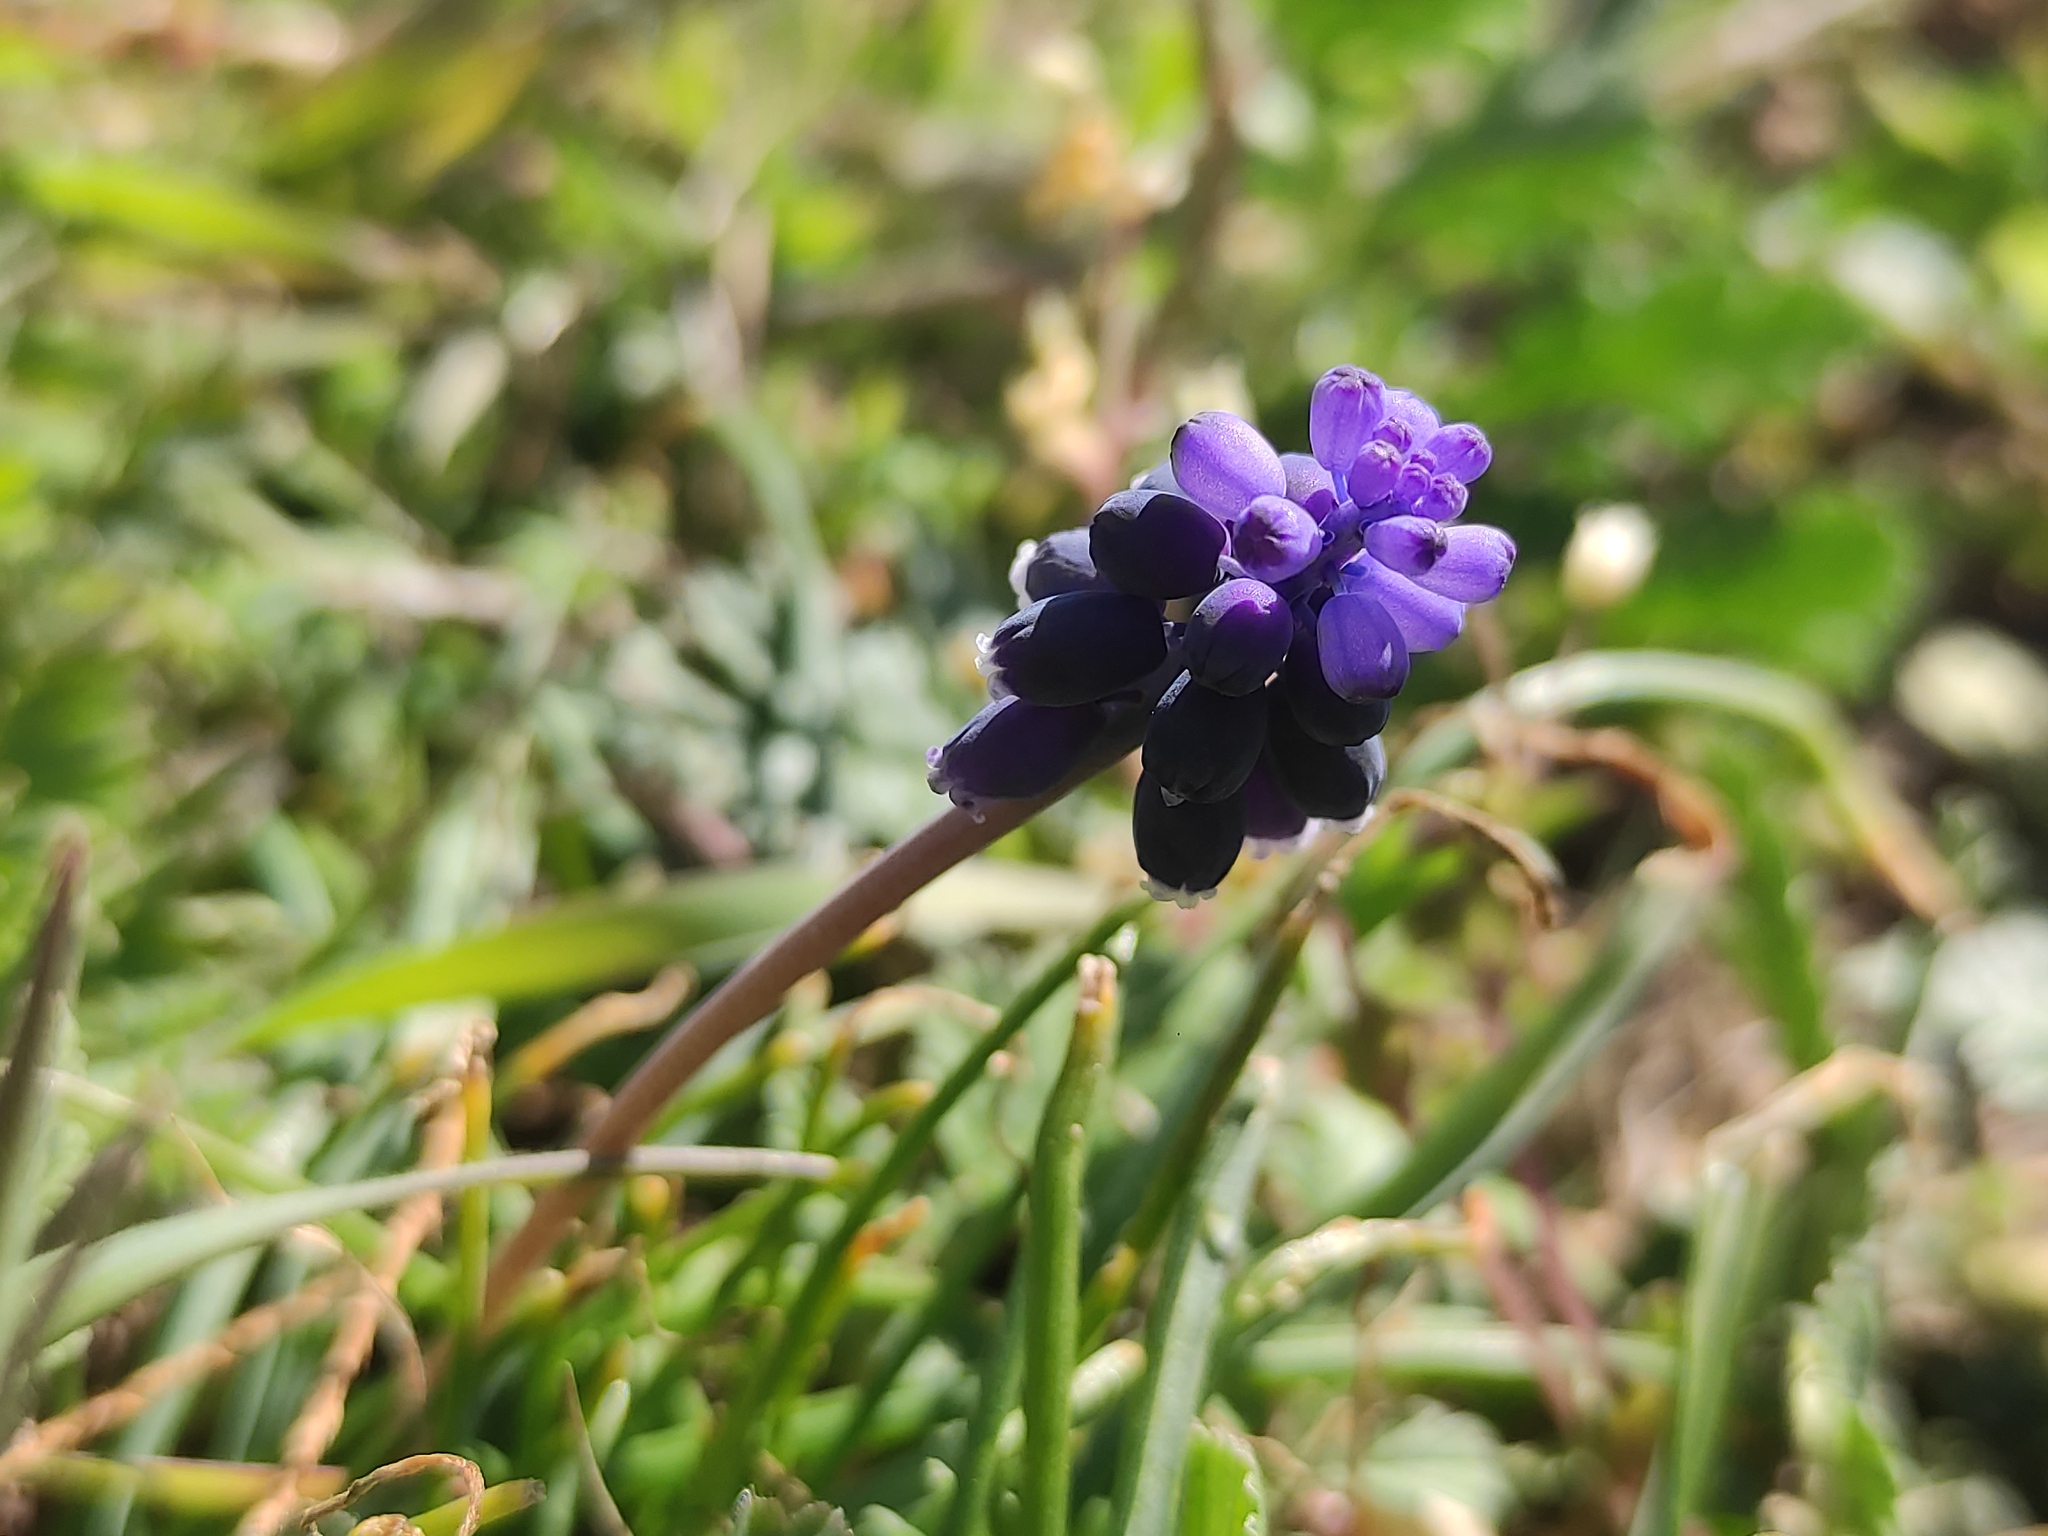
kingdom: Plantae
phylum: Tracheophyta
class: Liliopsida
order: Asparagales
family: Asparagaceae
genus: Muscari
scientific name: Muscari neglectum
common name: Grape-hyacinth
